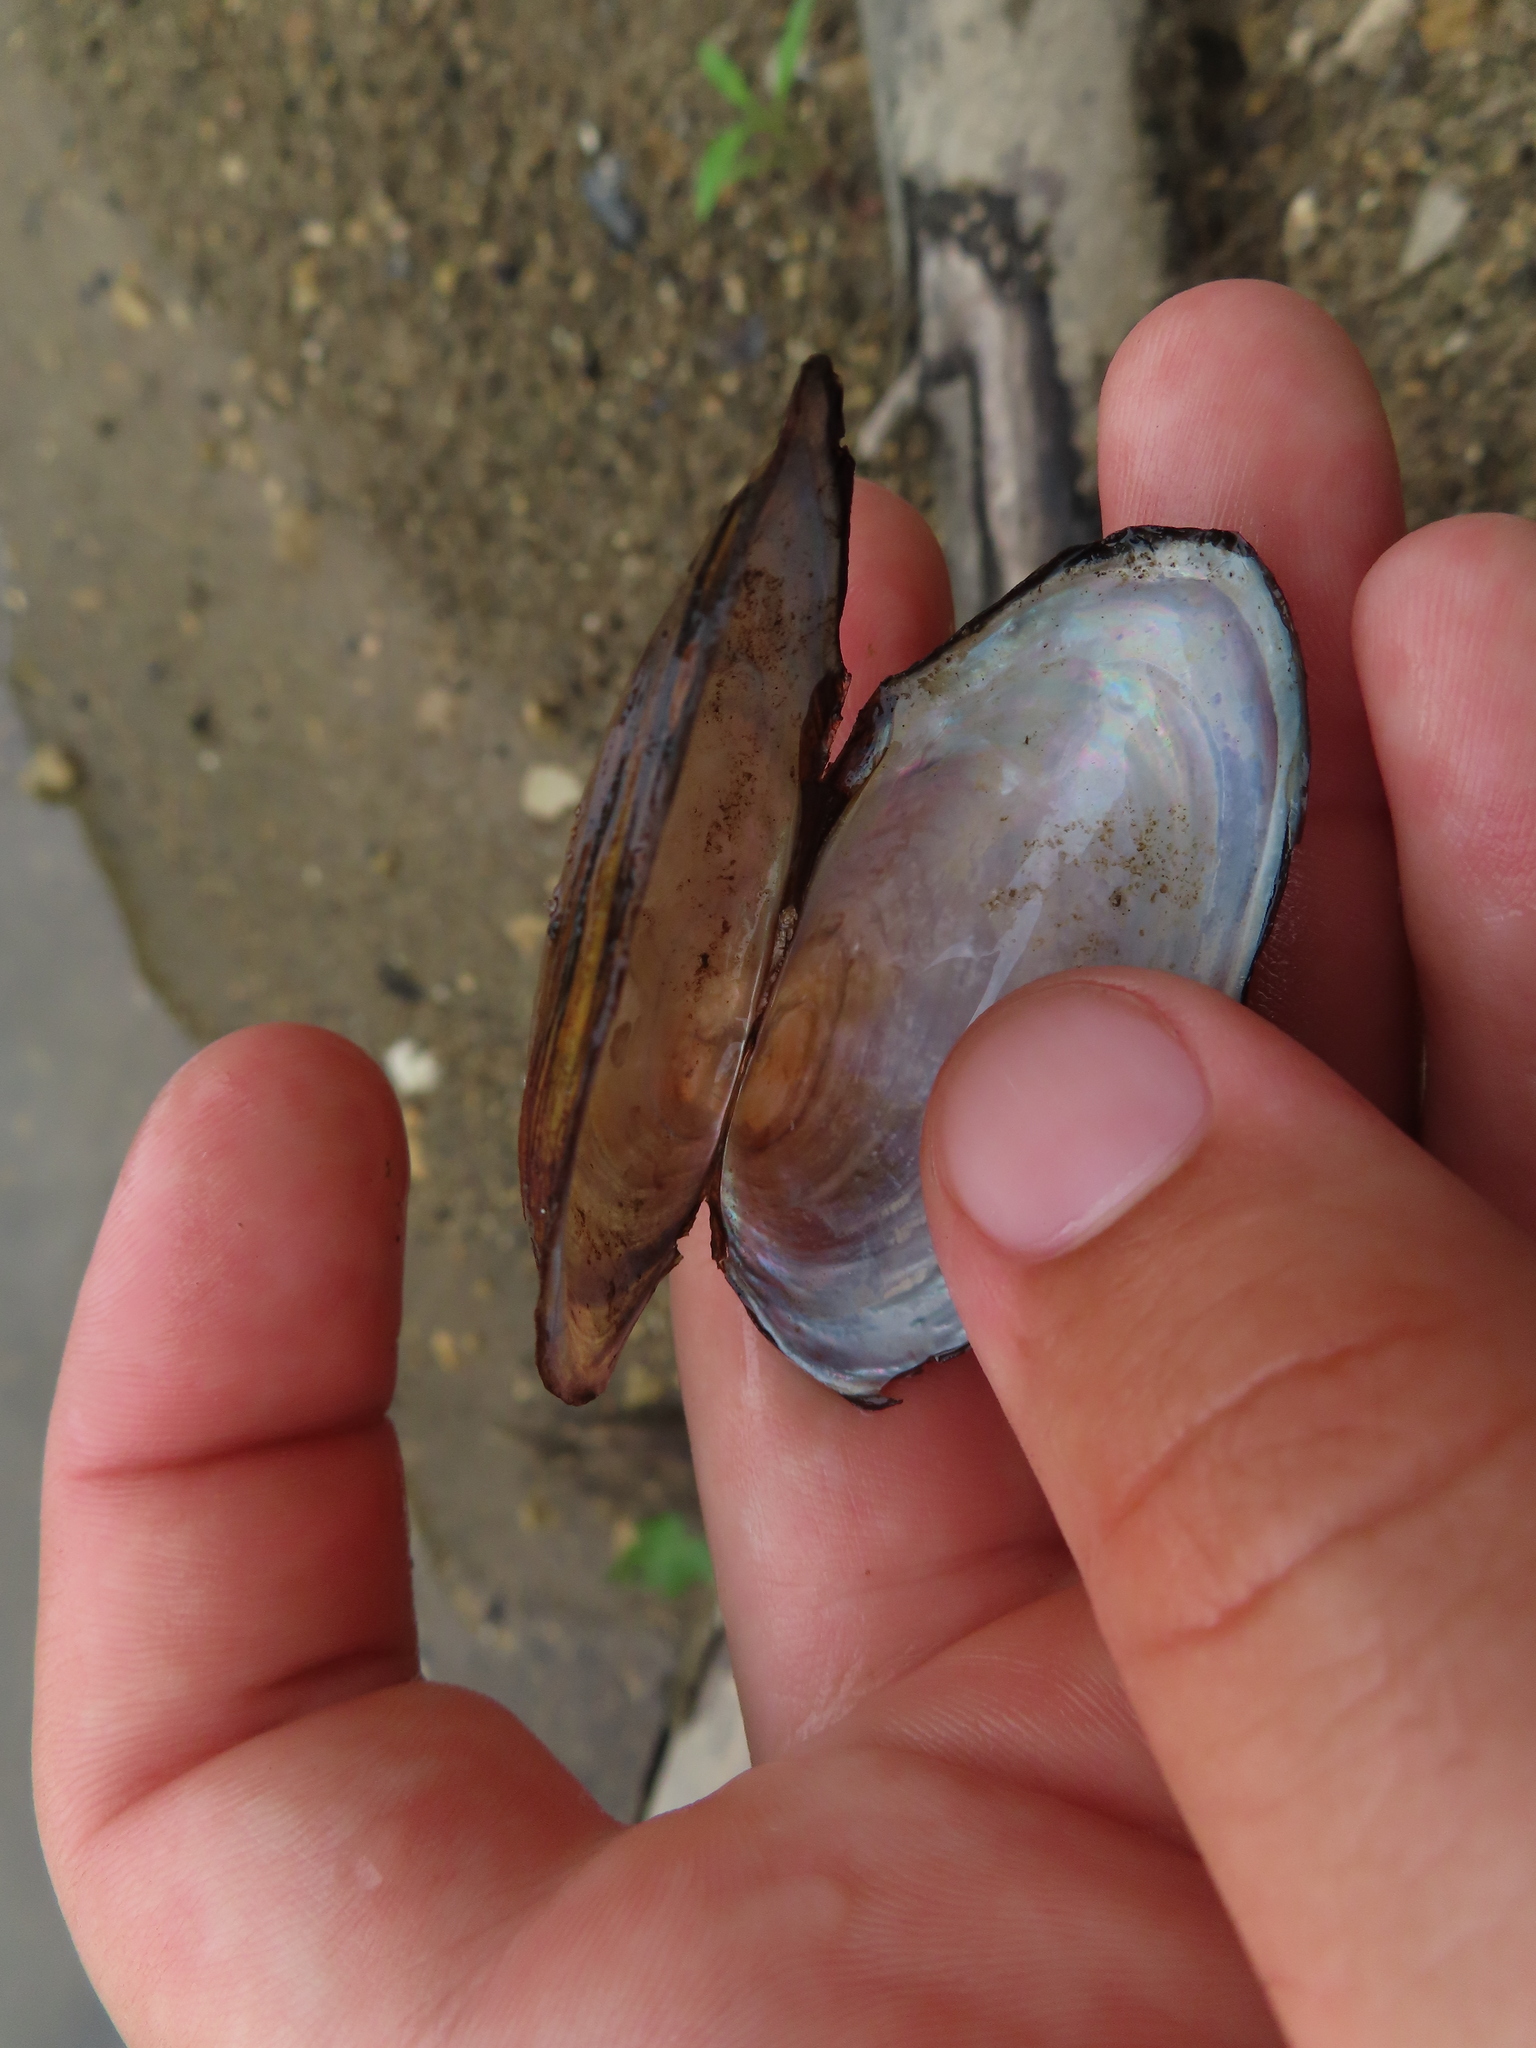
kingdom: Animalia
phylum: Mollusca
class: Bivalvia
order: Unionida
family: Unionidae
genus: Utterbackia
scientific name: Utterbackia imbecillis
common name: Paper pondshell
